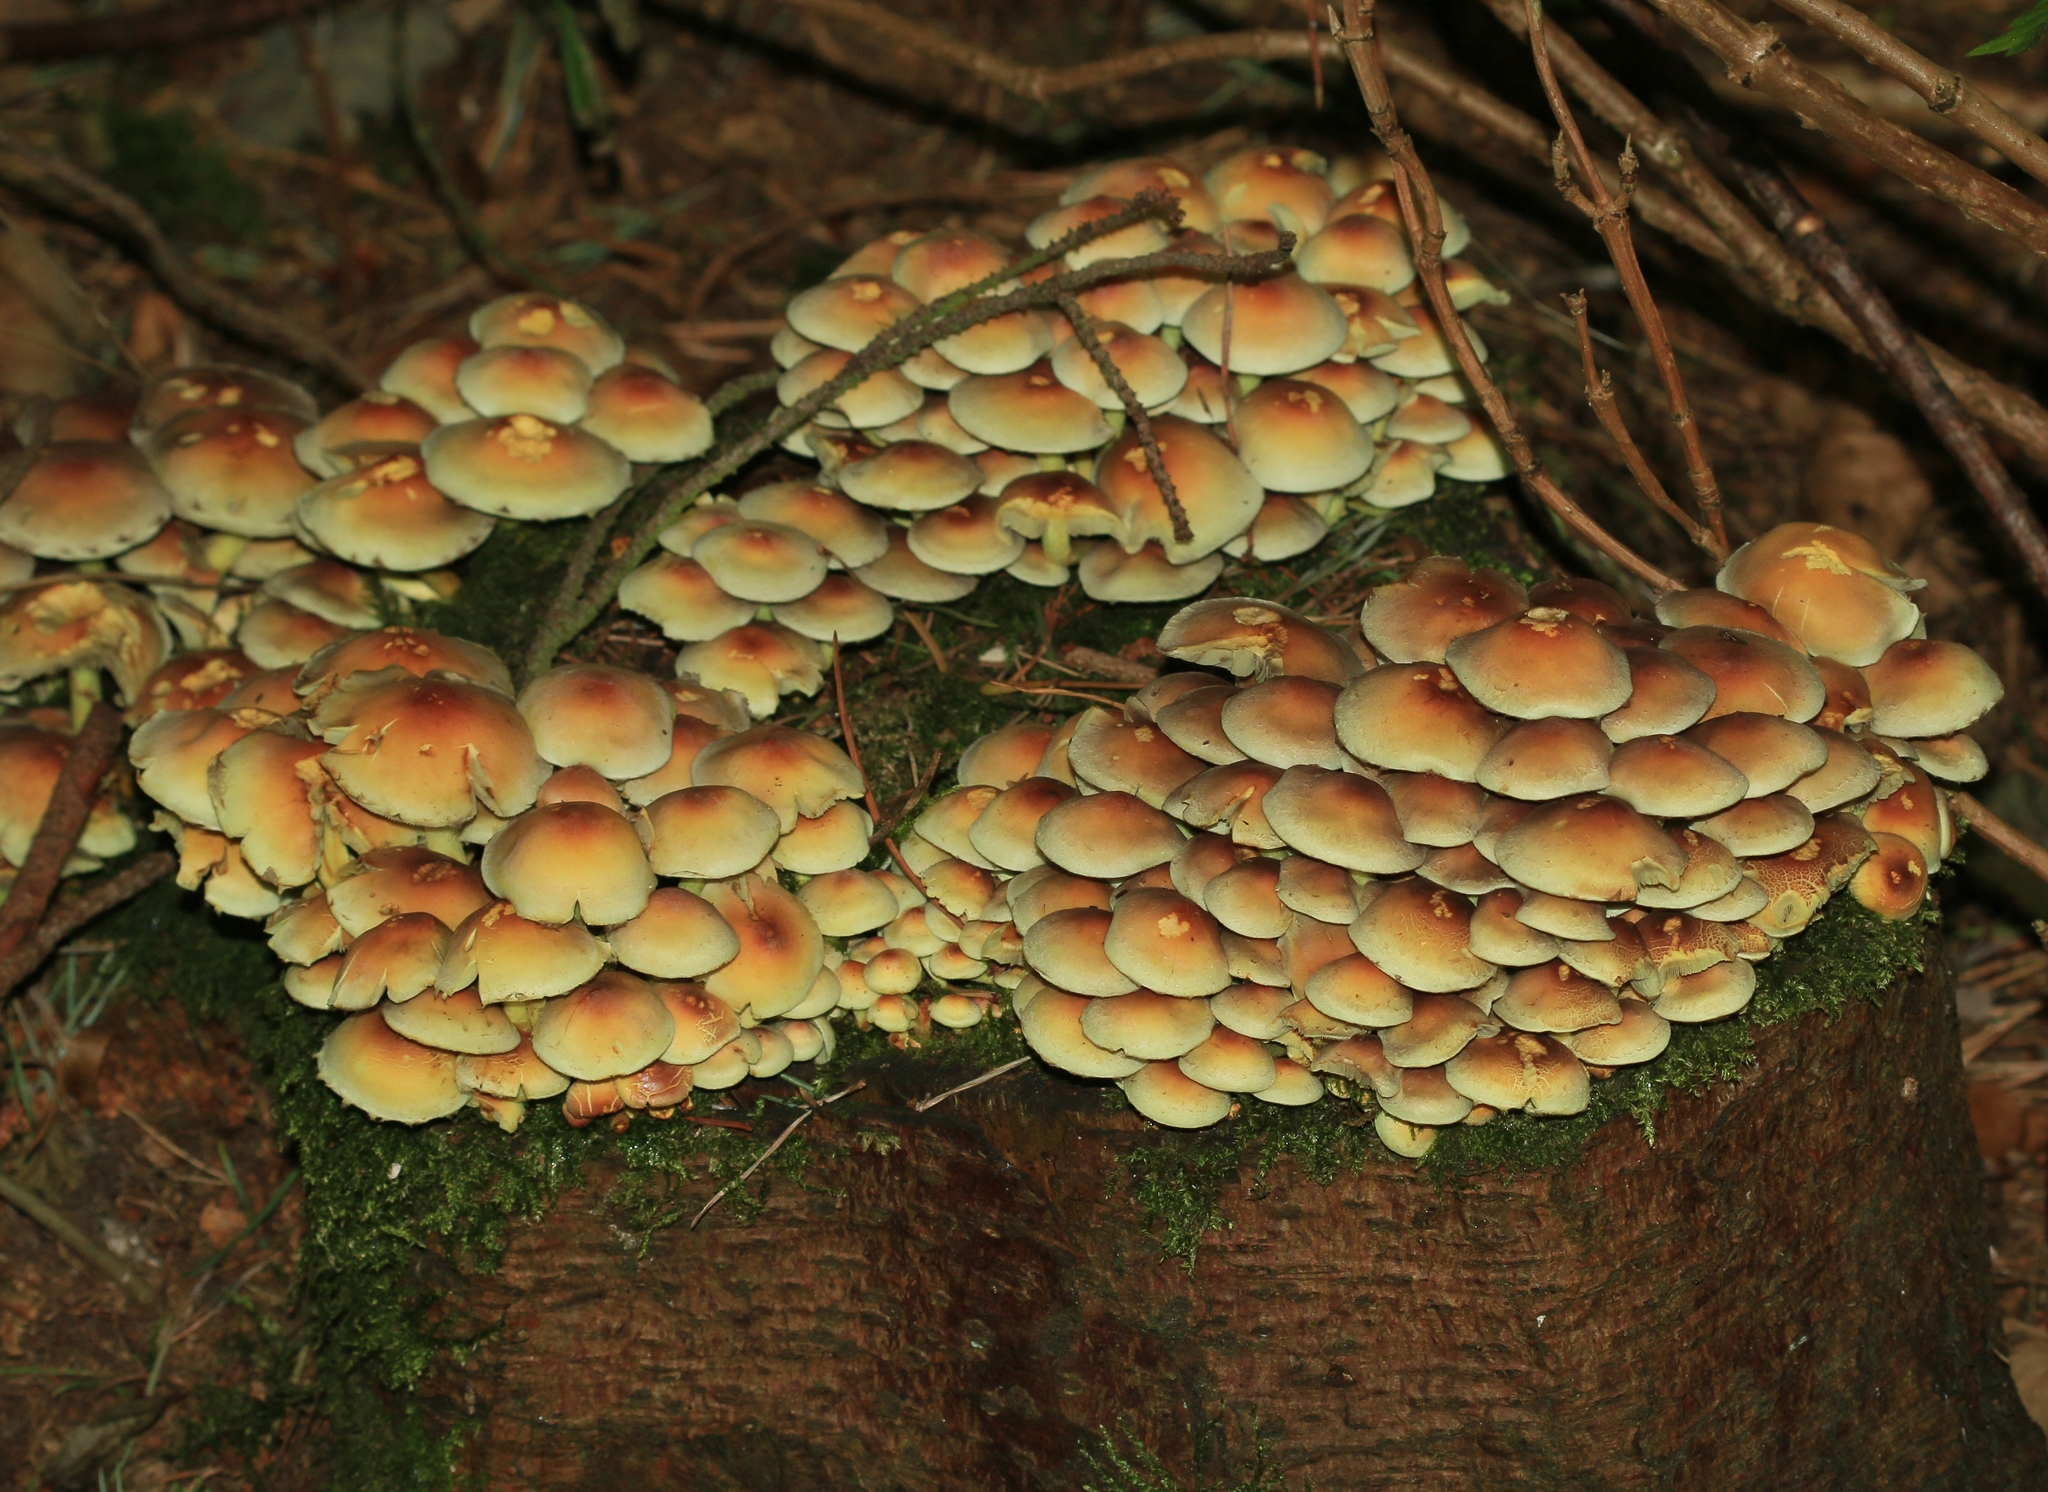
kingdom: Fungi
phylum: Basidiomycota
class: Agaricomycetes
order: Agaricales
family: Strophariaceae
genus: Hypholoma
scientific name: Hypholoma fasciculare
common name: Sulphur tuft
